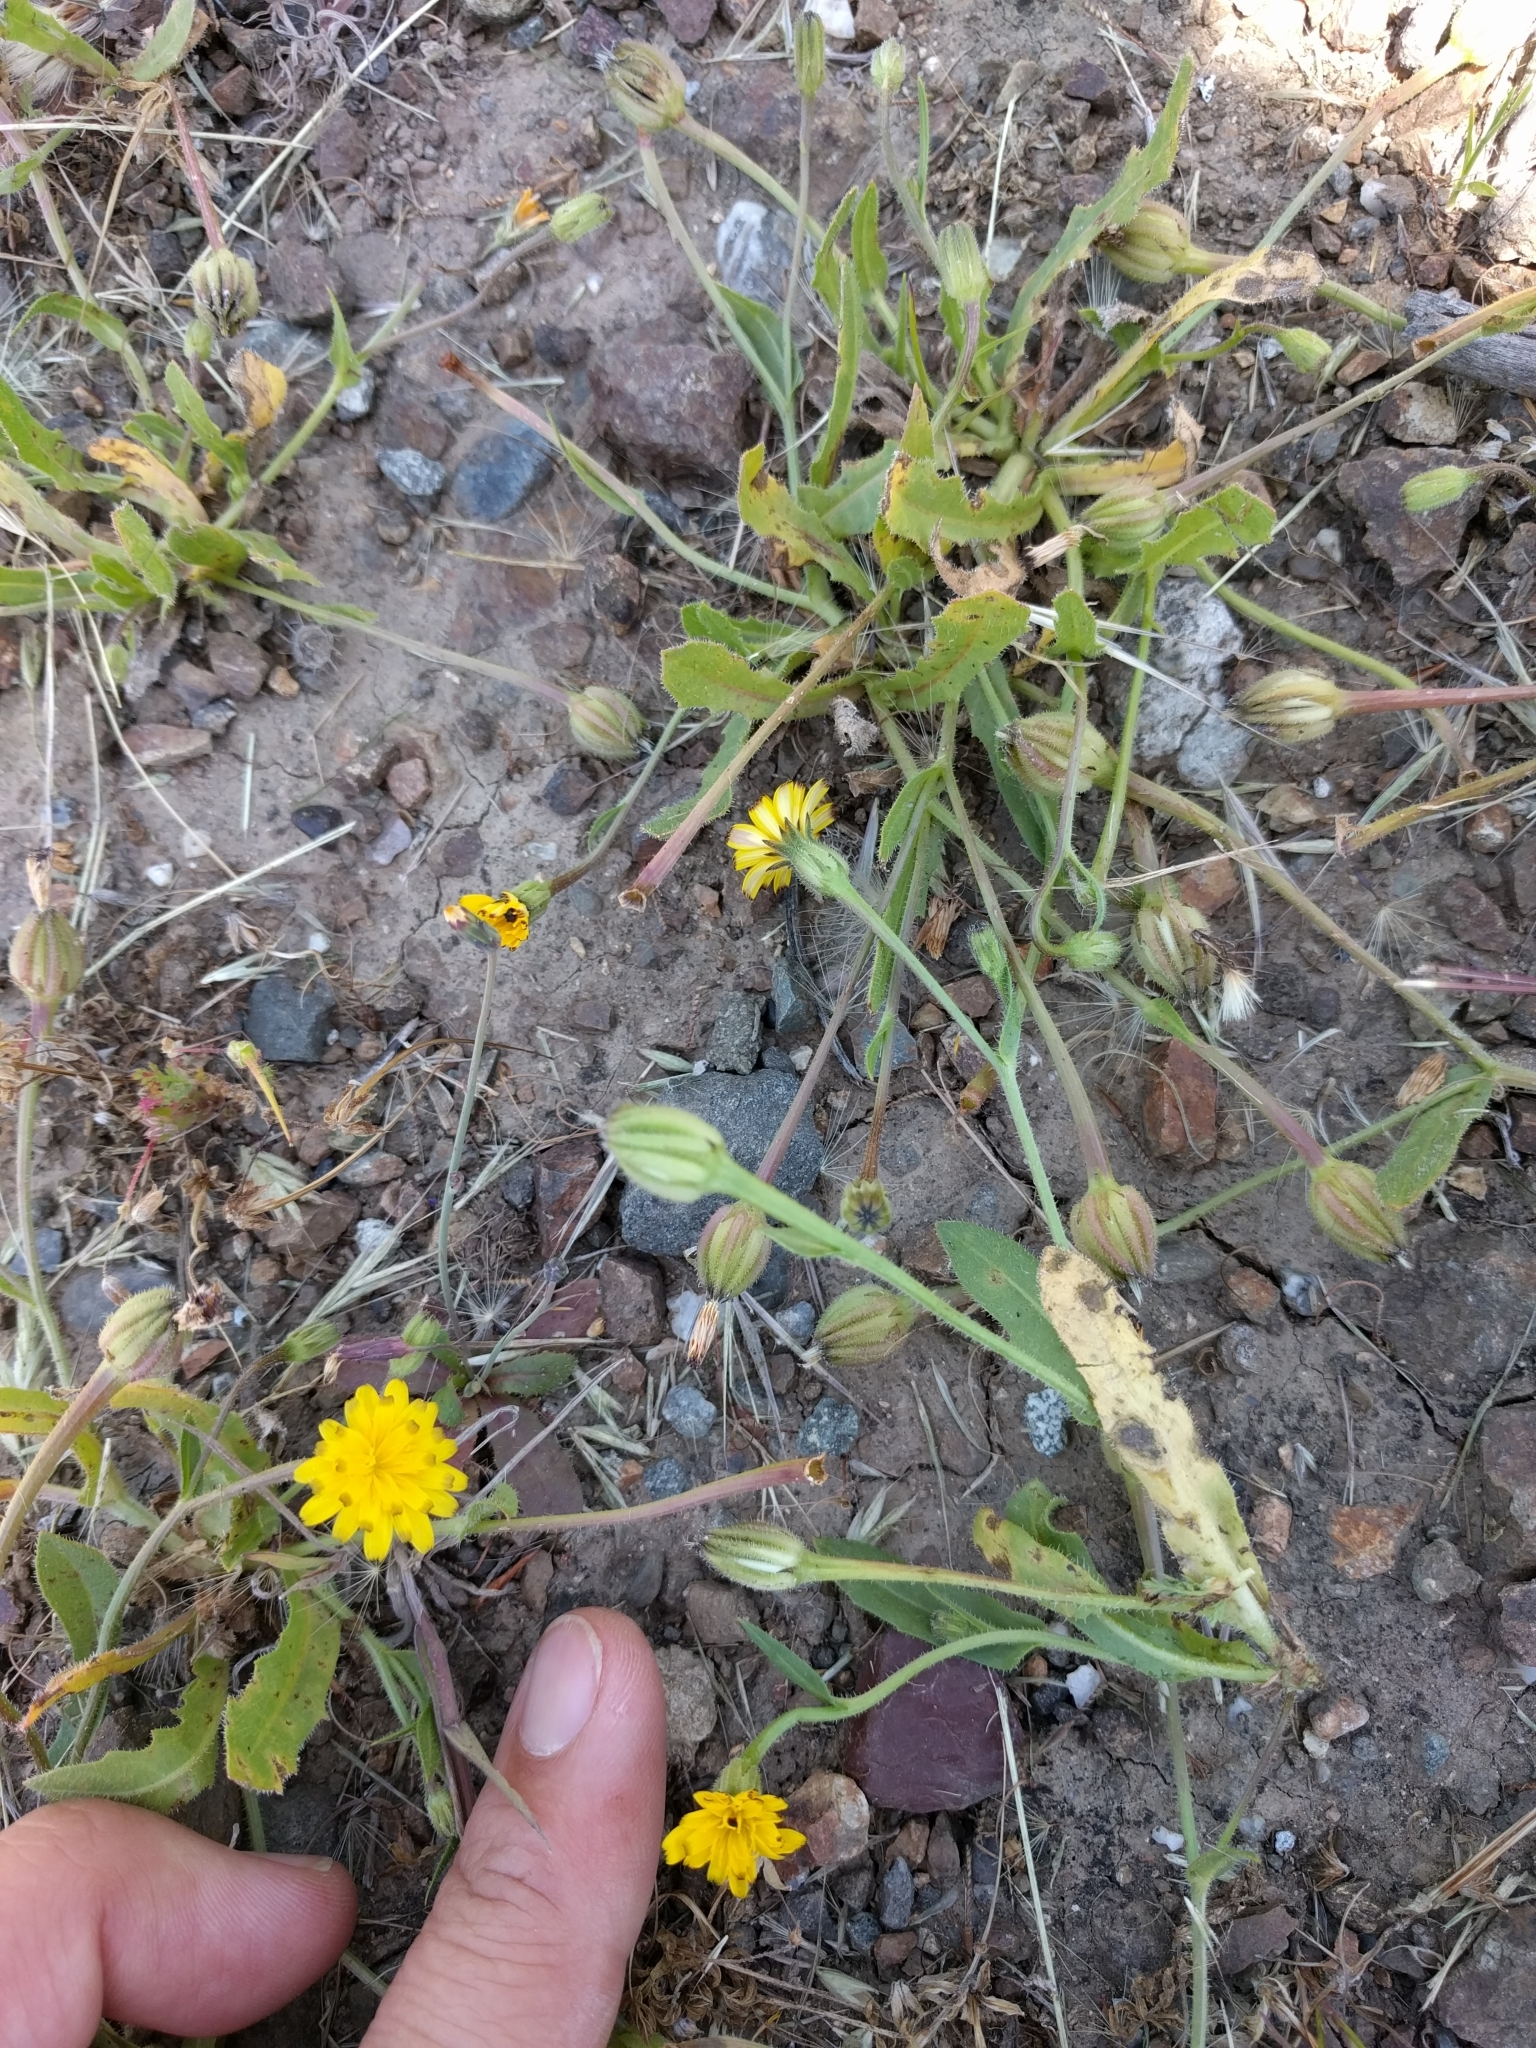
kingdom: Plantae
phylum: Tracheophyta
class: Magnoliopsida
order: Asterales
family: Asteraceae
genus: Hedypnois
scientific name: Hedypnois rhagadioloides
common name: Cretan weed
